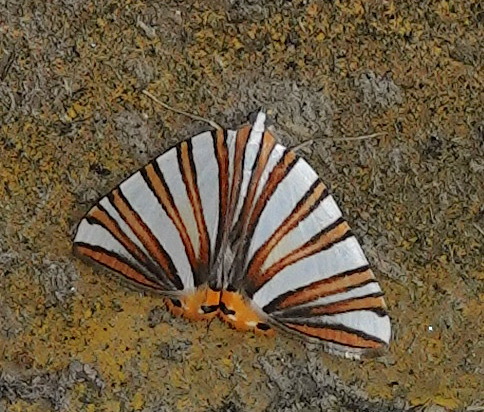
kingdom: Animalia
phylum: Arthropoda
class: Insecta
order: Lepidoptera
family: Geometridae
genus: Pityeja
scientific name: Pityeja histrionaria
